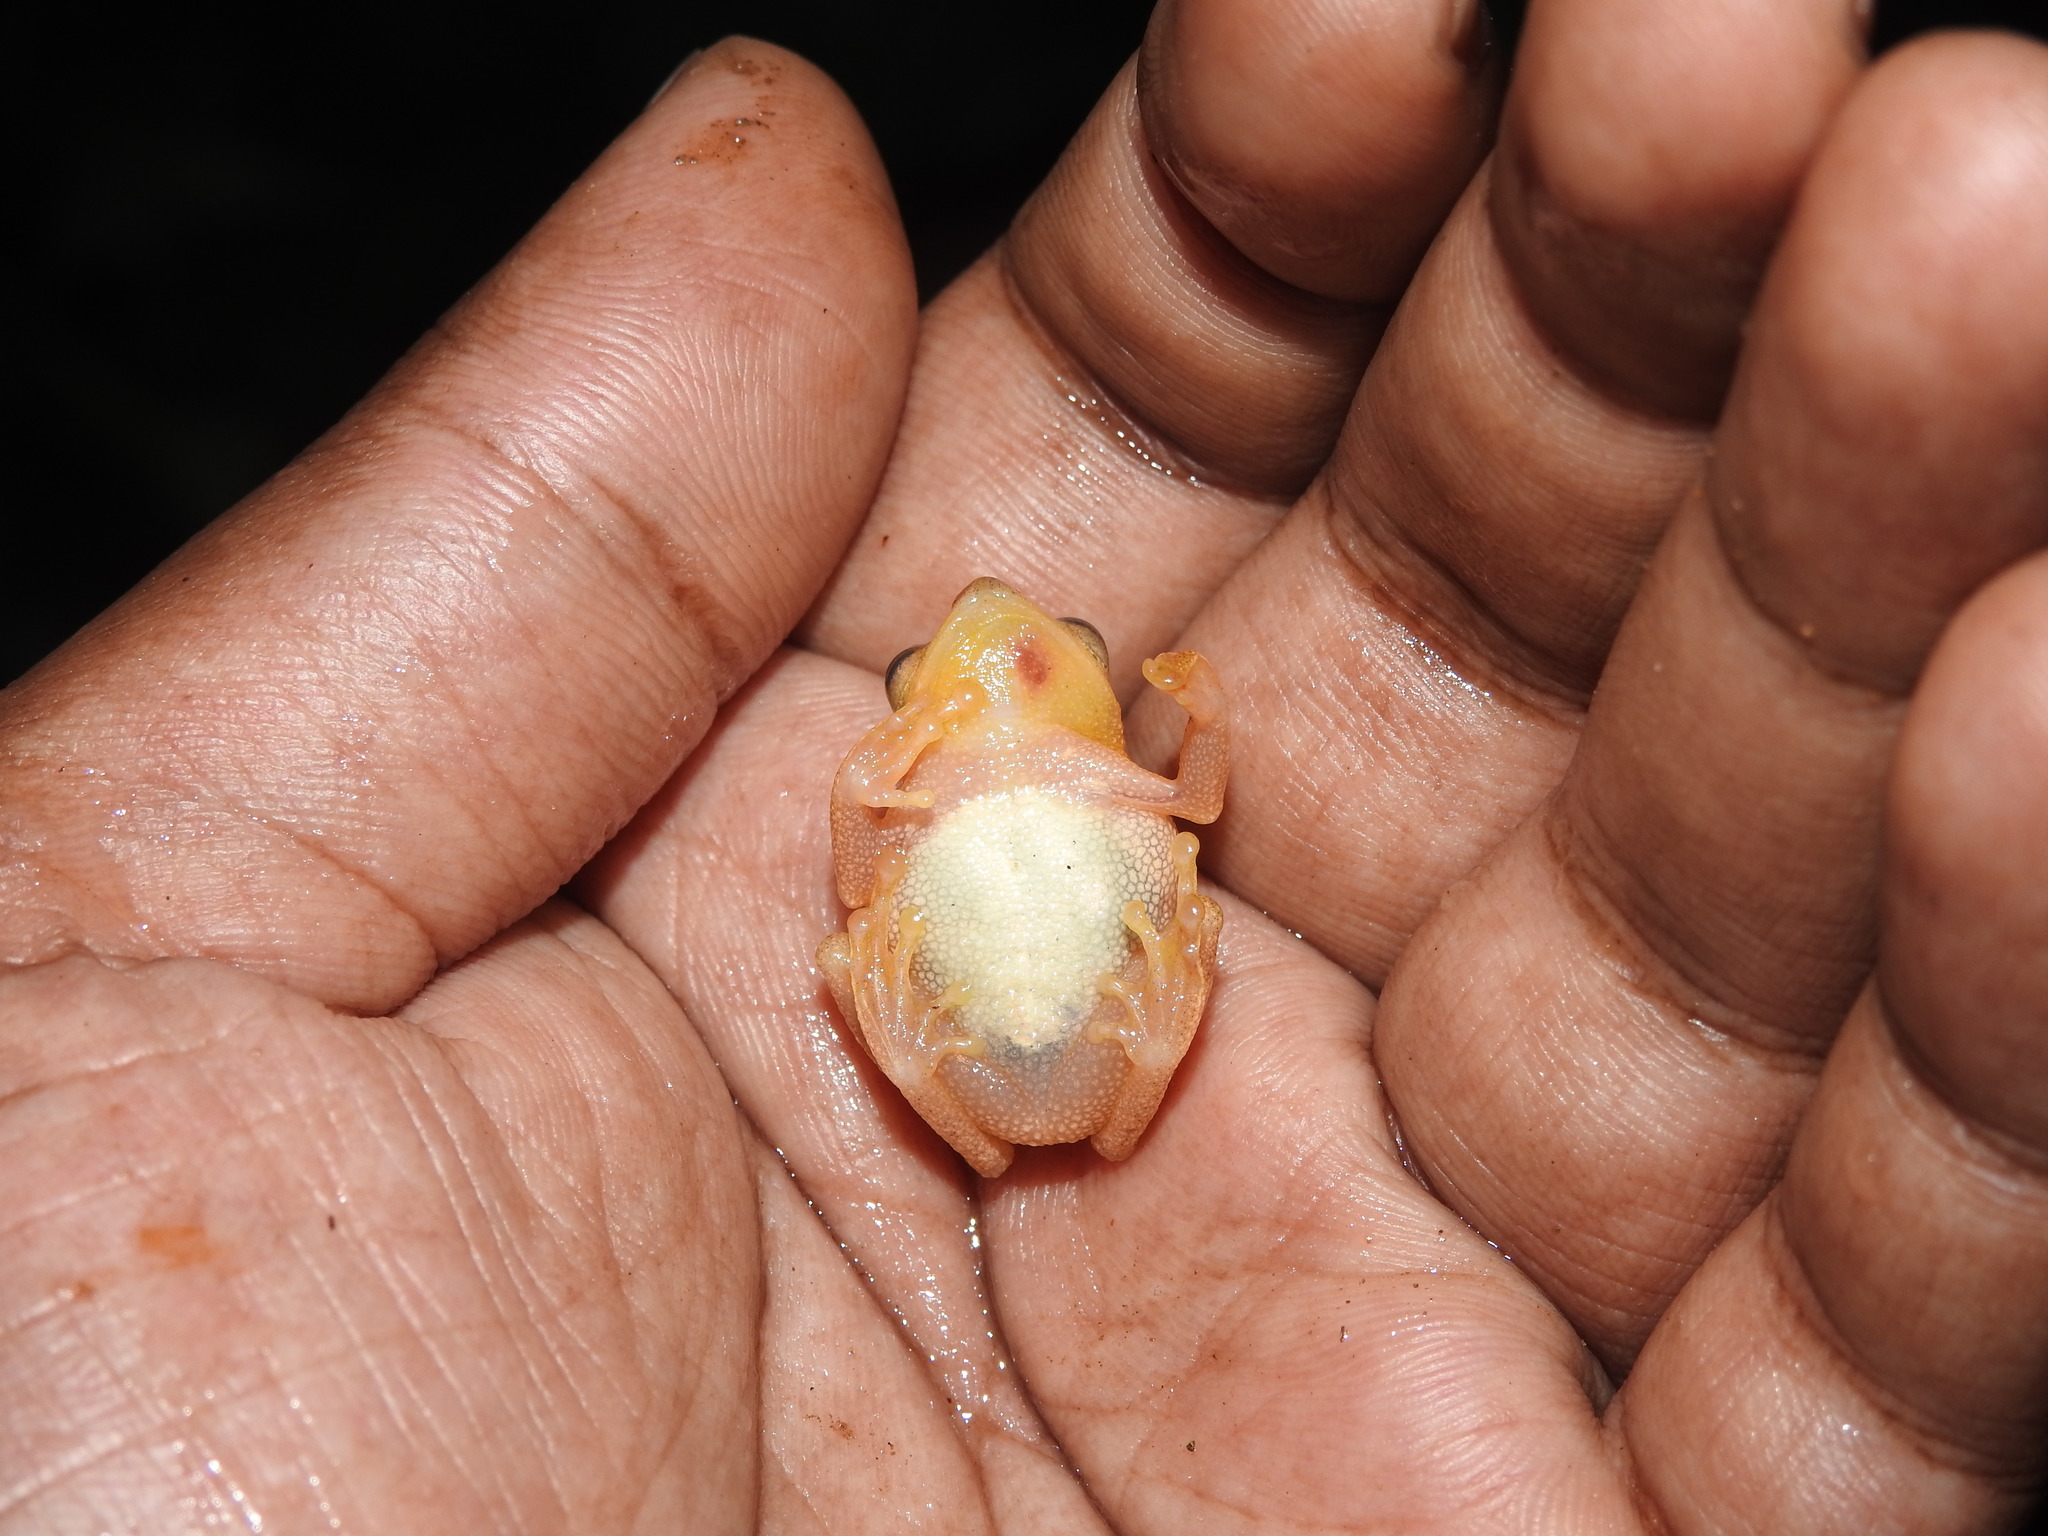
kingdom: Animalia
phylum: Chordata
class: Amphibia
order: Anura
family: Rhacophoridae
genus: Raorchestes
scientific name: Raorchestes luteolus
